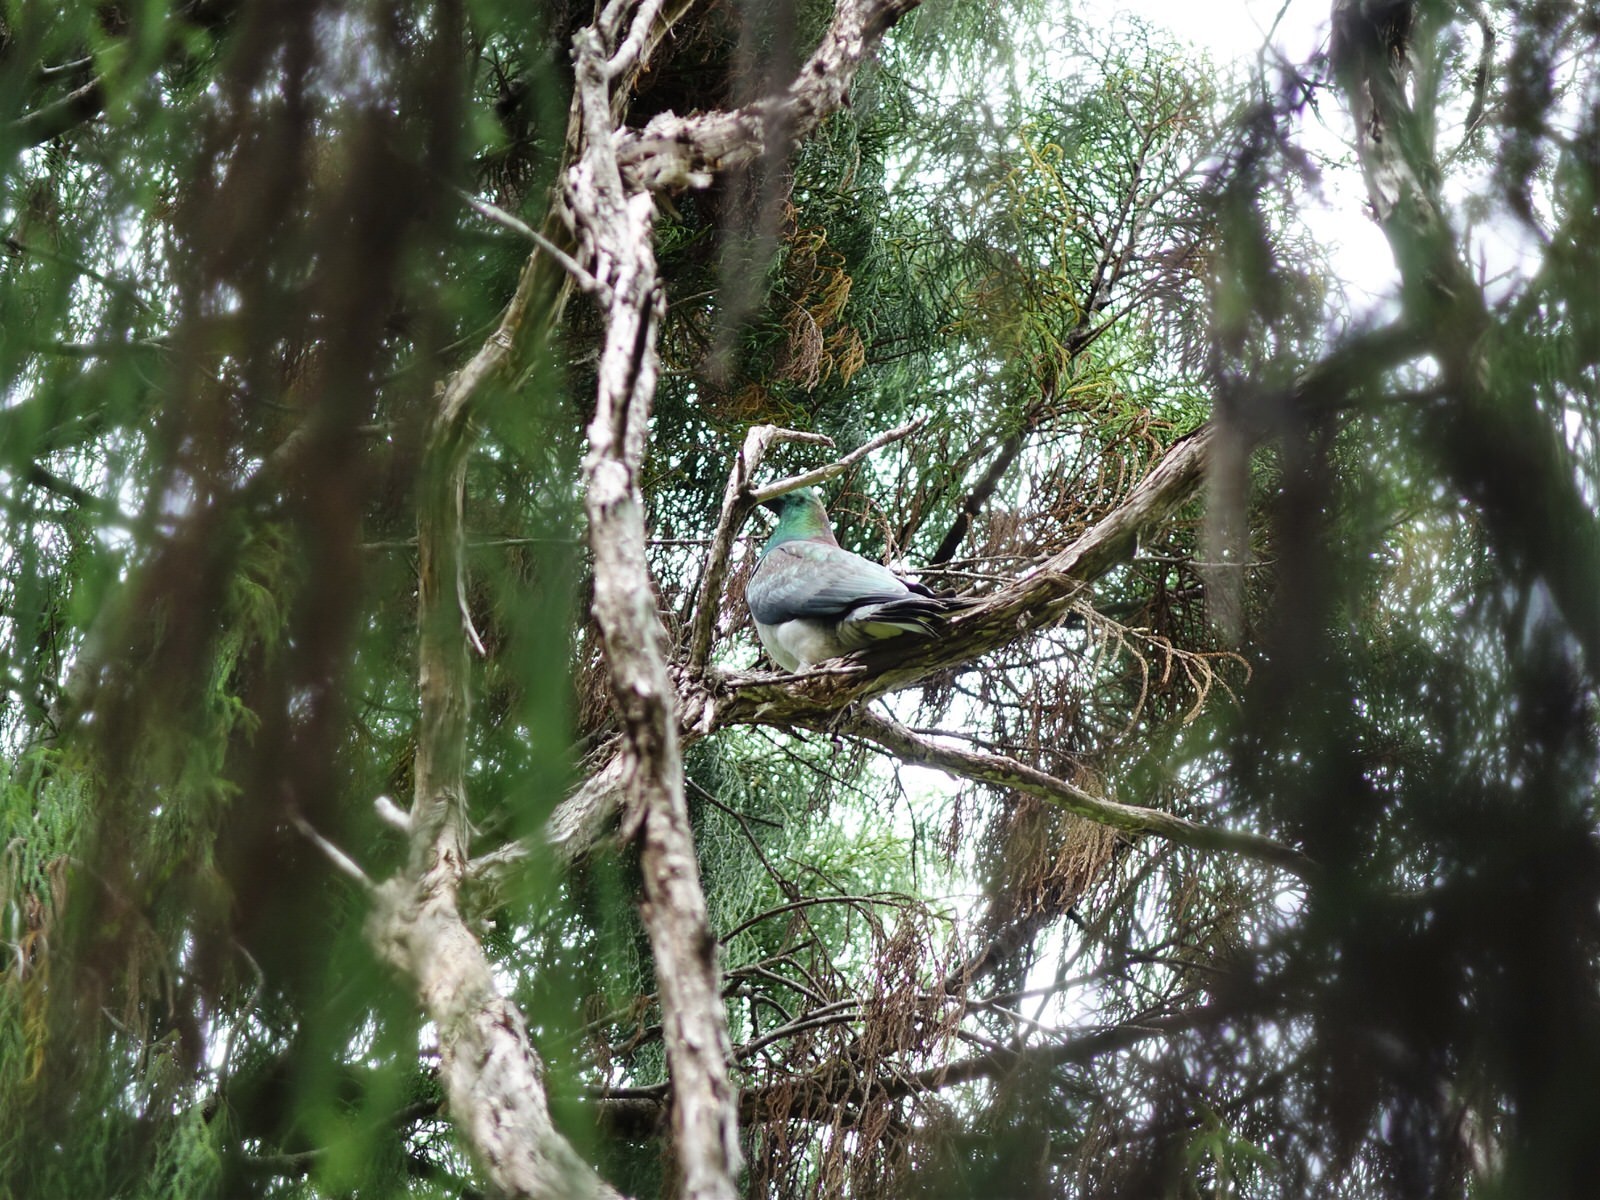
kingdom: Animalia
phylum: Chordata
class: Aves
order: Columbiformes
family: Columbidae
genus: Hemiphaga
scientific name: Hemiphaga novaeseelandiae
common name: New zealand pigeon
